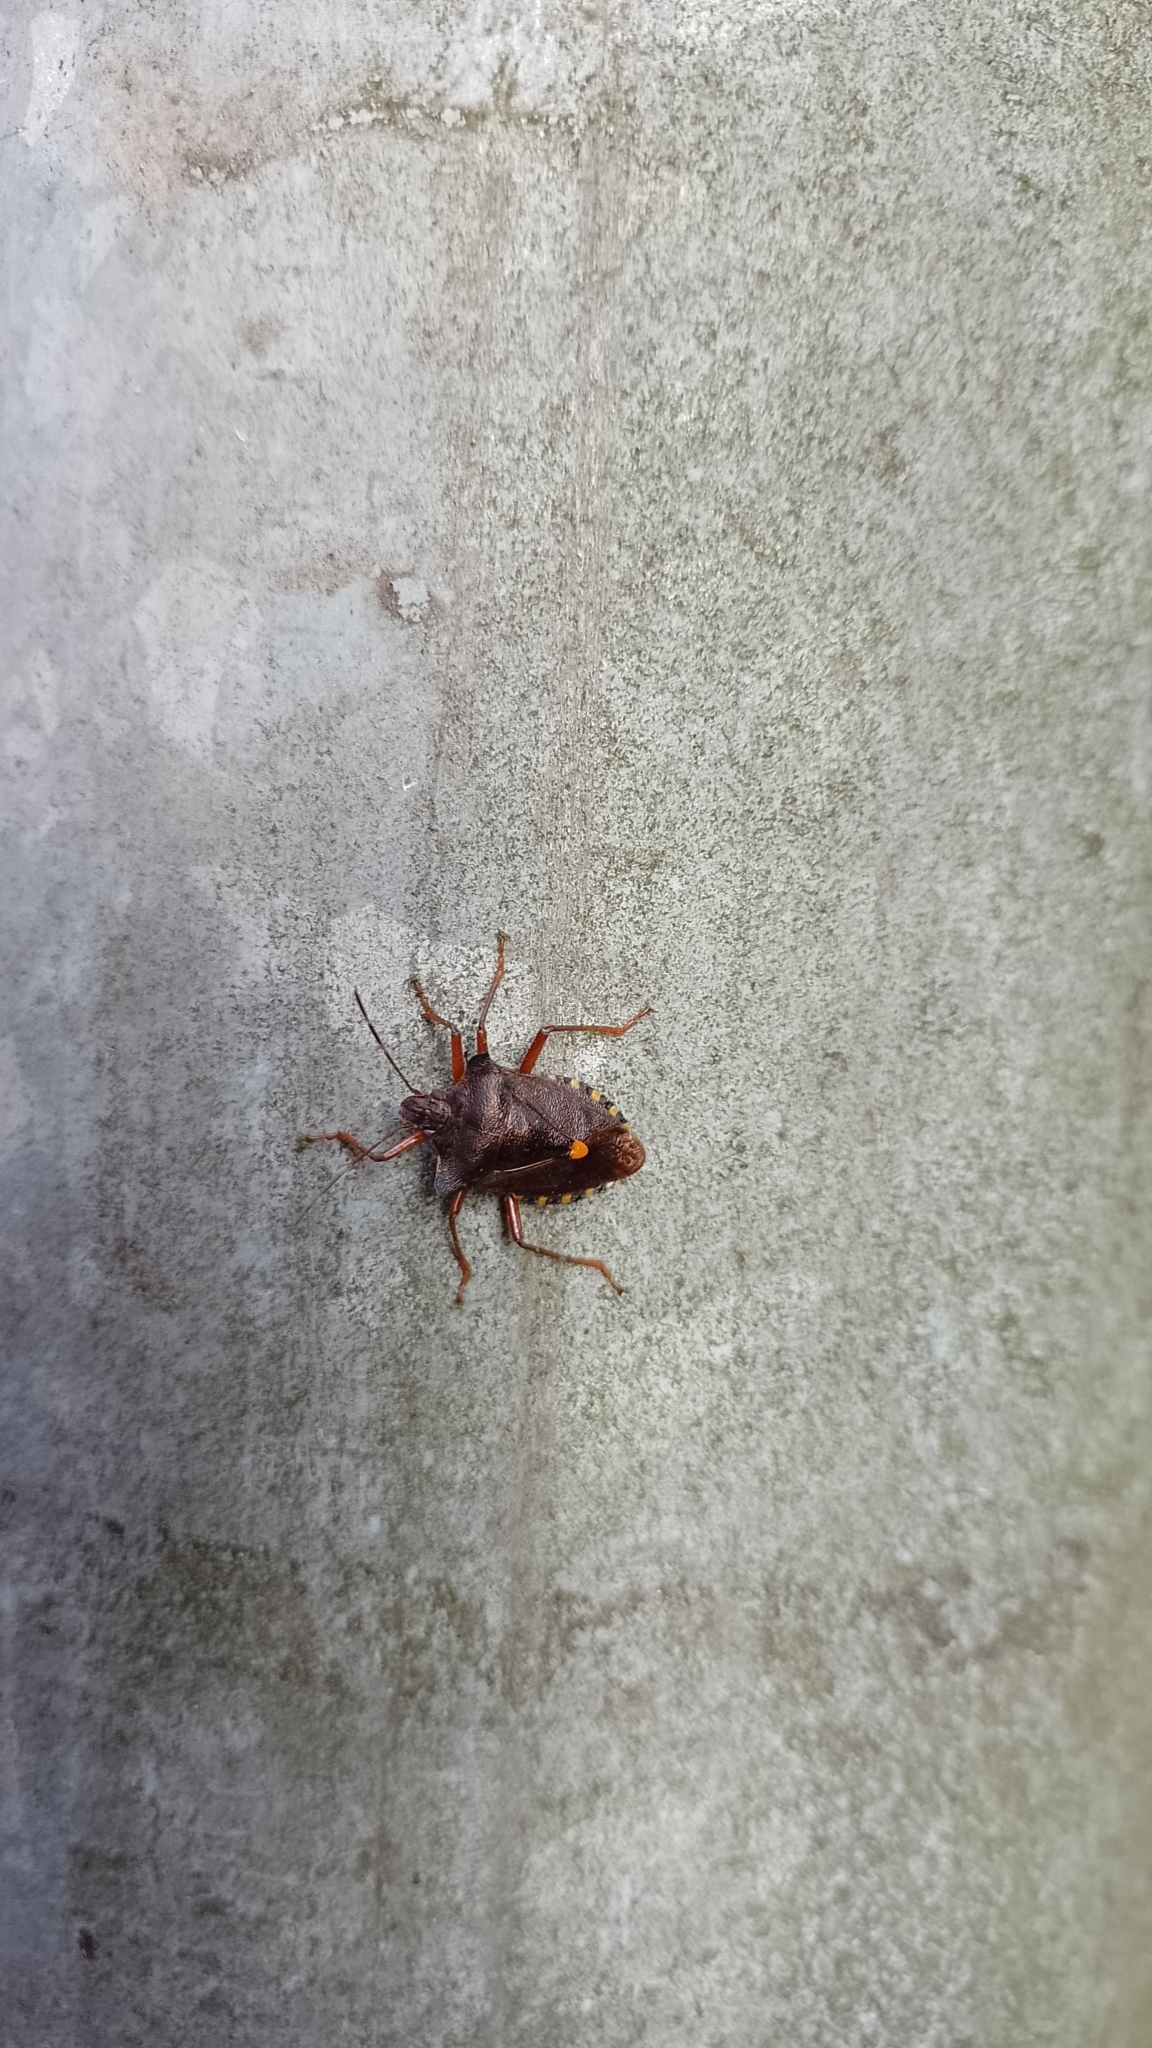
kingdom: Animalia
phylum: Arthropoda
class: Insecta
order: Hemiptera
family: Pentatomidae
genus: Pentatoma
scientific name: Pentatoma rufipes
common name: Forest bug
